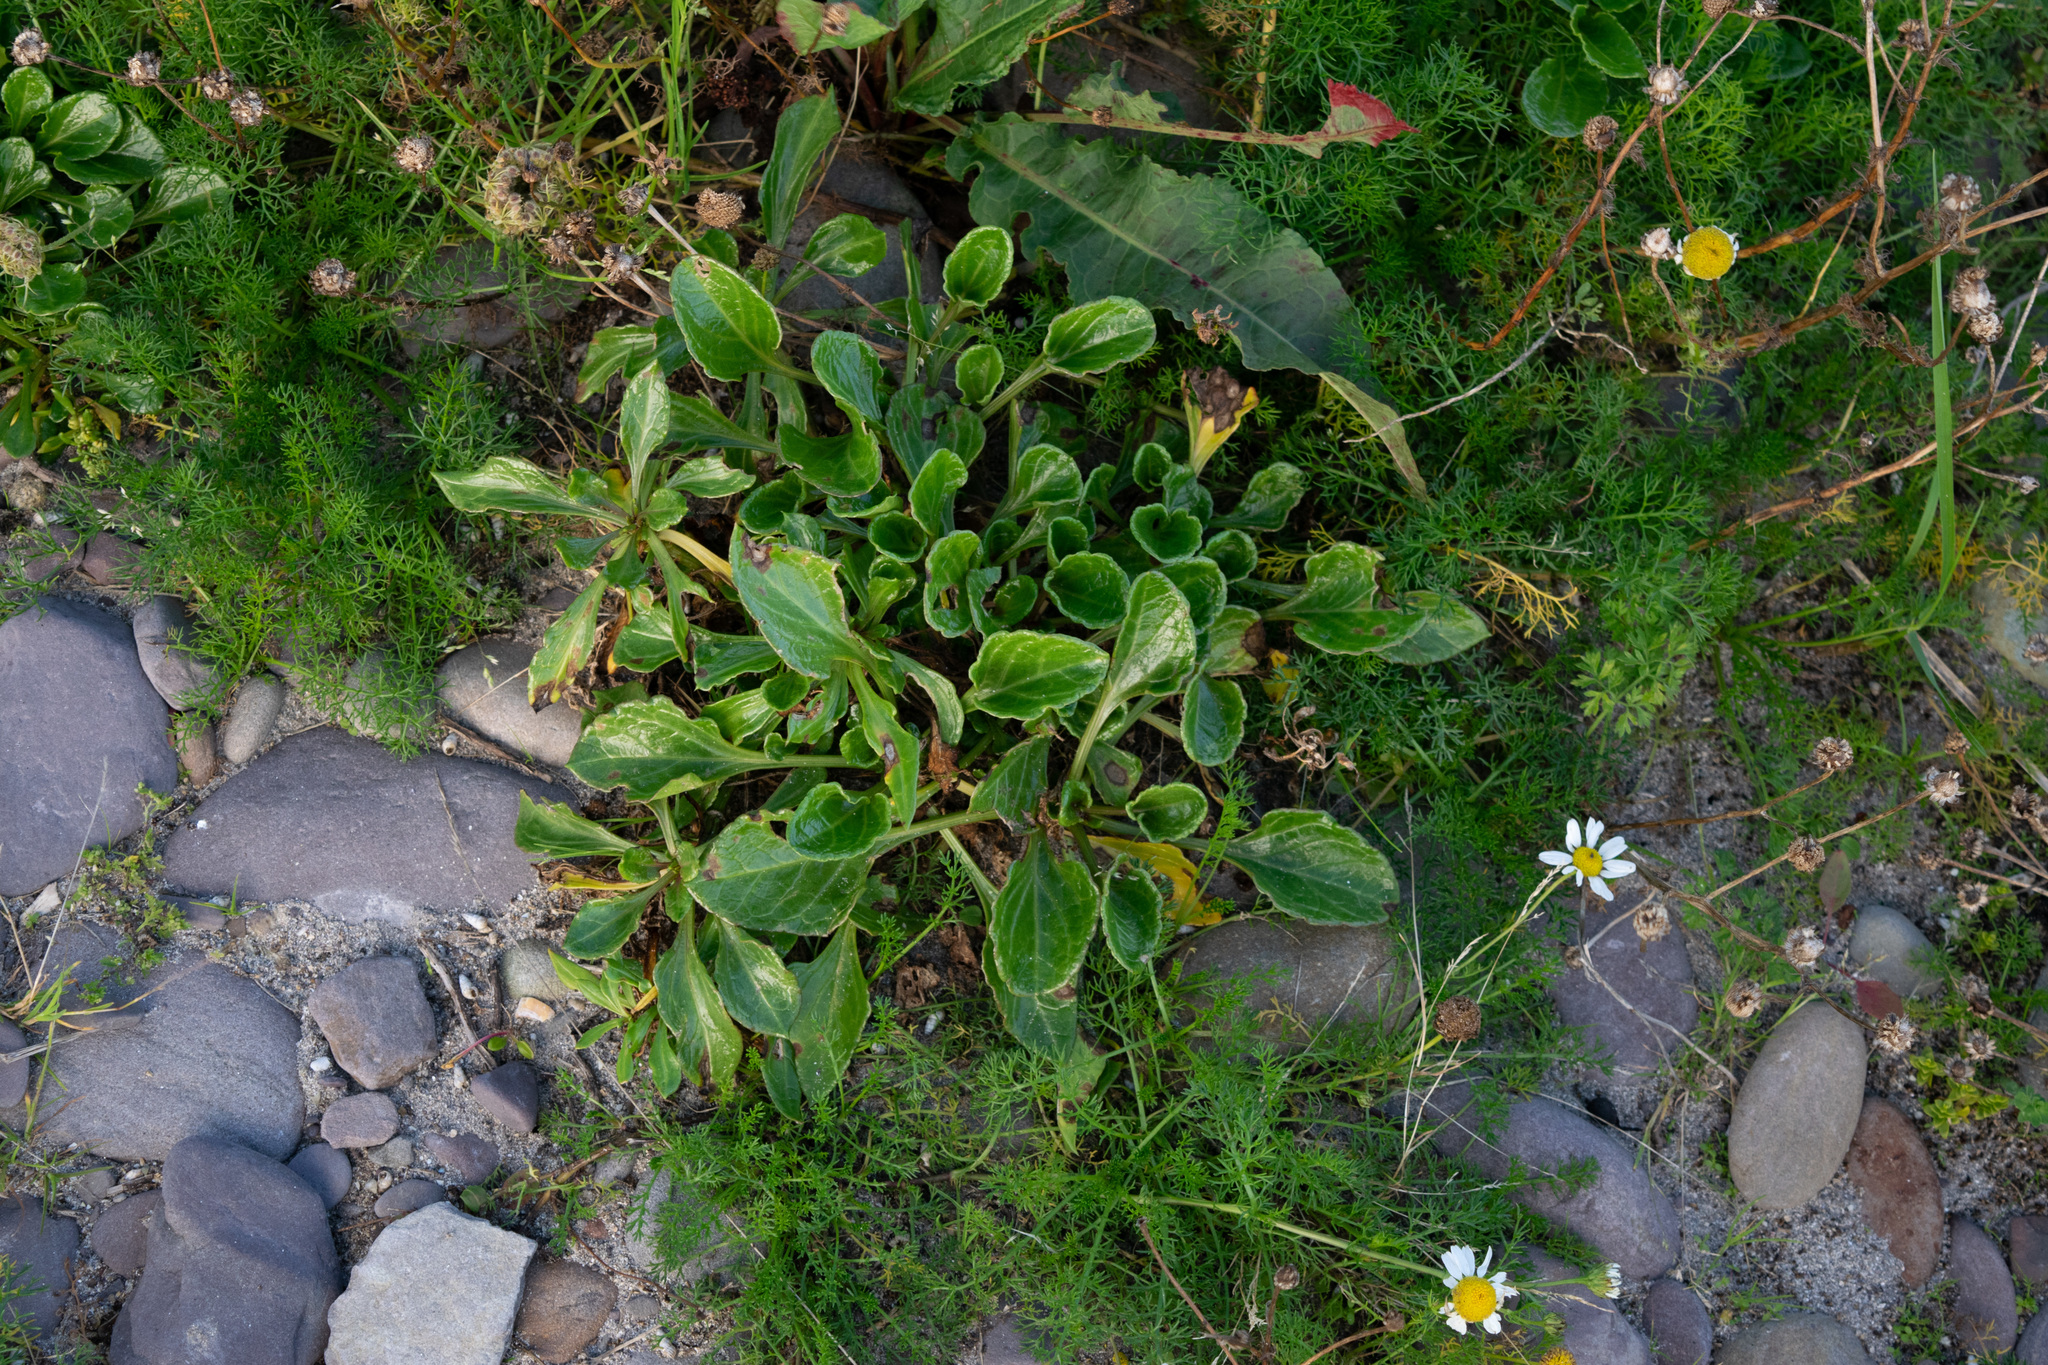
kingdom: Plantae
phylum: Tracheophyta
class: Magnoliopsida
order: Caryophyllales
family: Amaranthaceae
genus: Beta
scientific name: Beta vulgaris
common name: Beet
